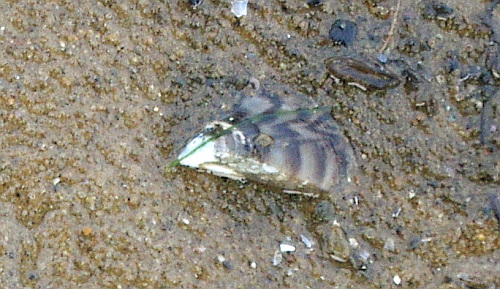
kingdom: Animalia
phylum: Mollusca
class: Bivalvia
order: Myida
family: Dreissenidae
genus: Dreissena
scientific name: Dreissena polymorpha
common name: Zebra mussel
